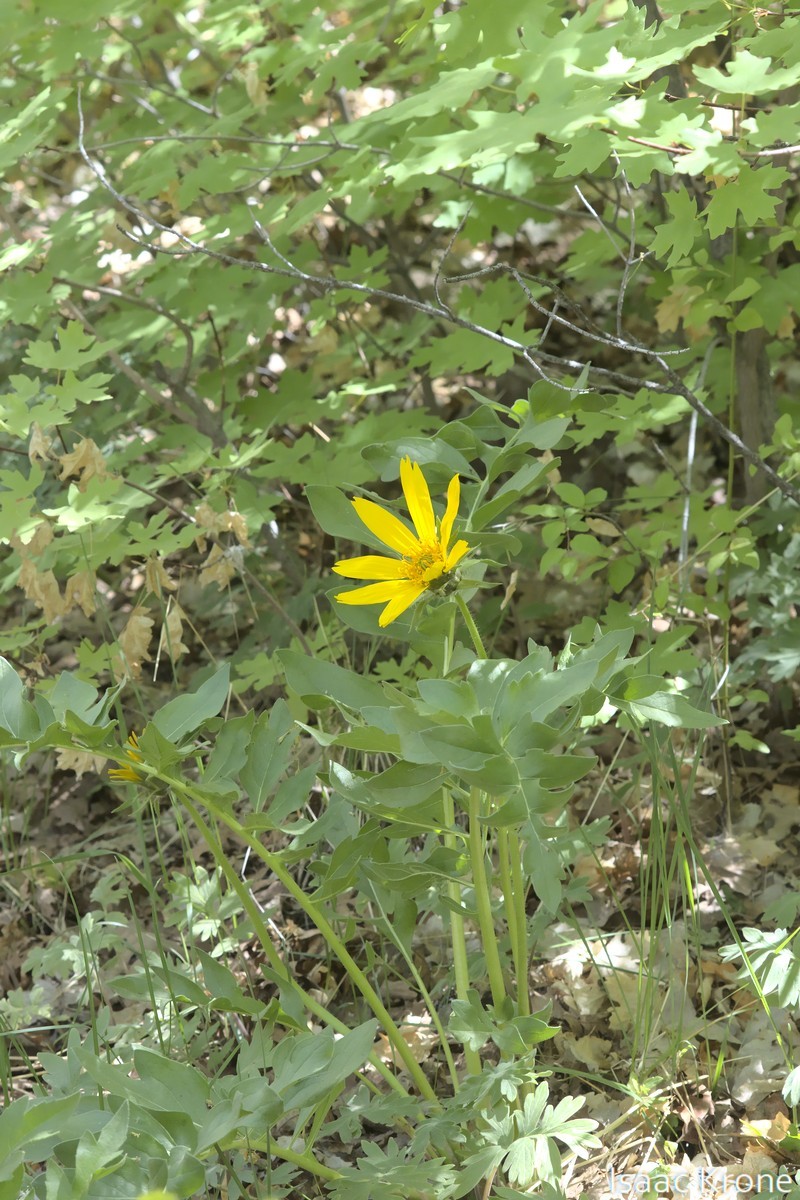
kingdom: Plantae
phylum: Tracheophyta
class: Magnoliopsida
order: Asterales
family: Asteraceae
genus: Balsamorhiza
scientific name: Balsamorhiza macrophylla
